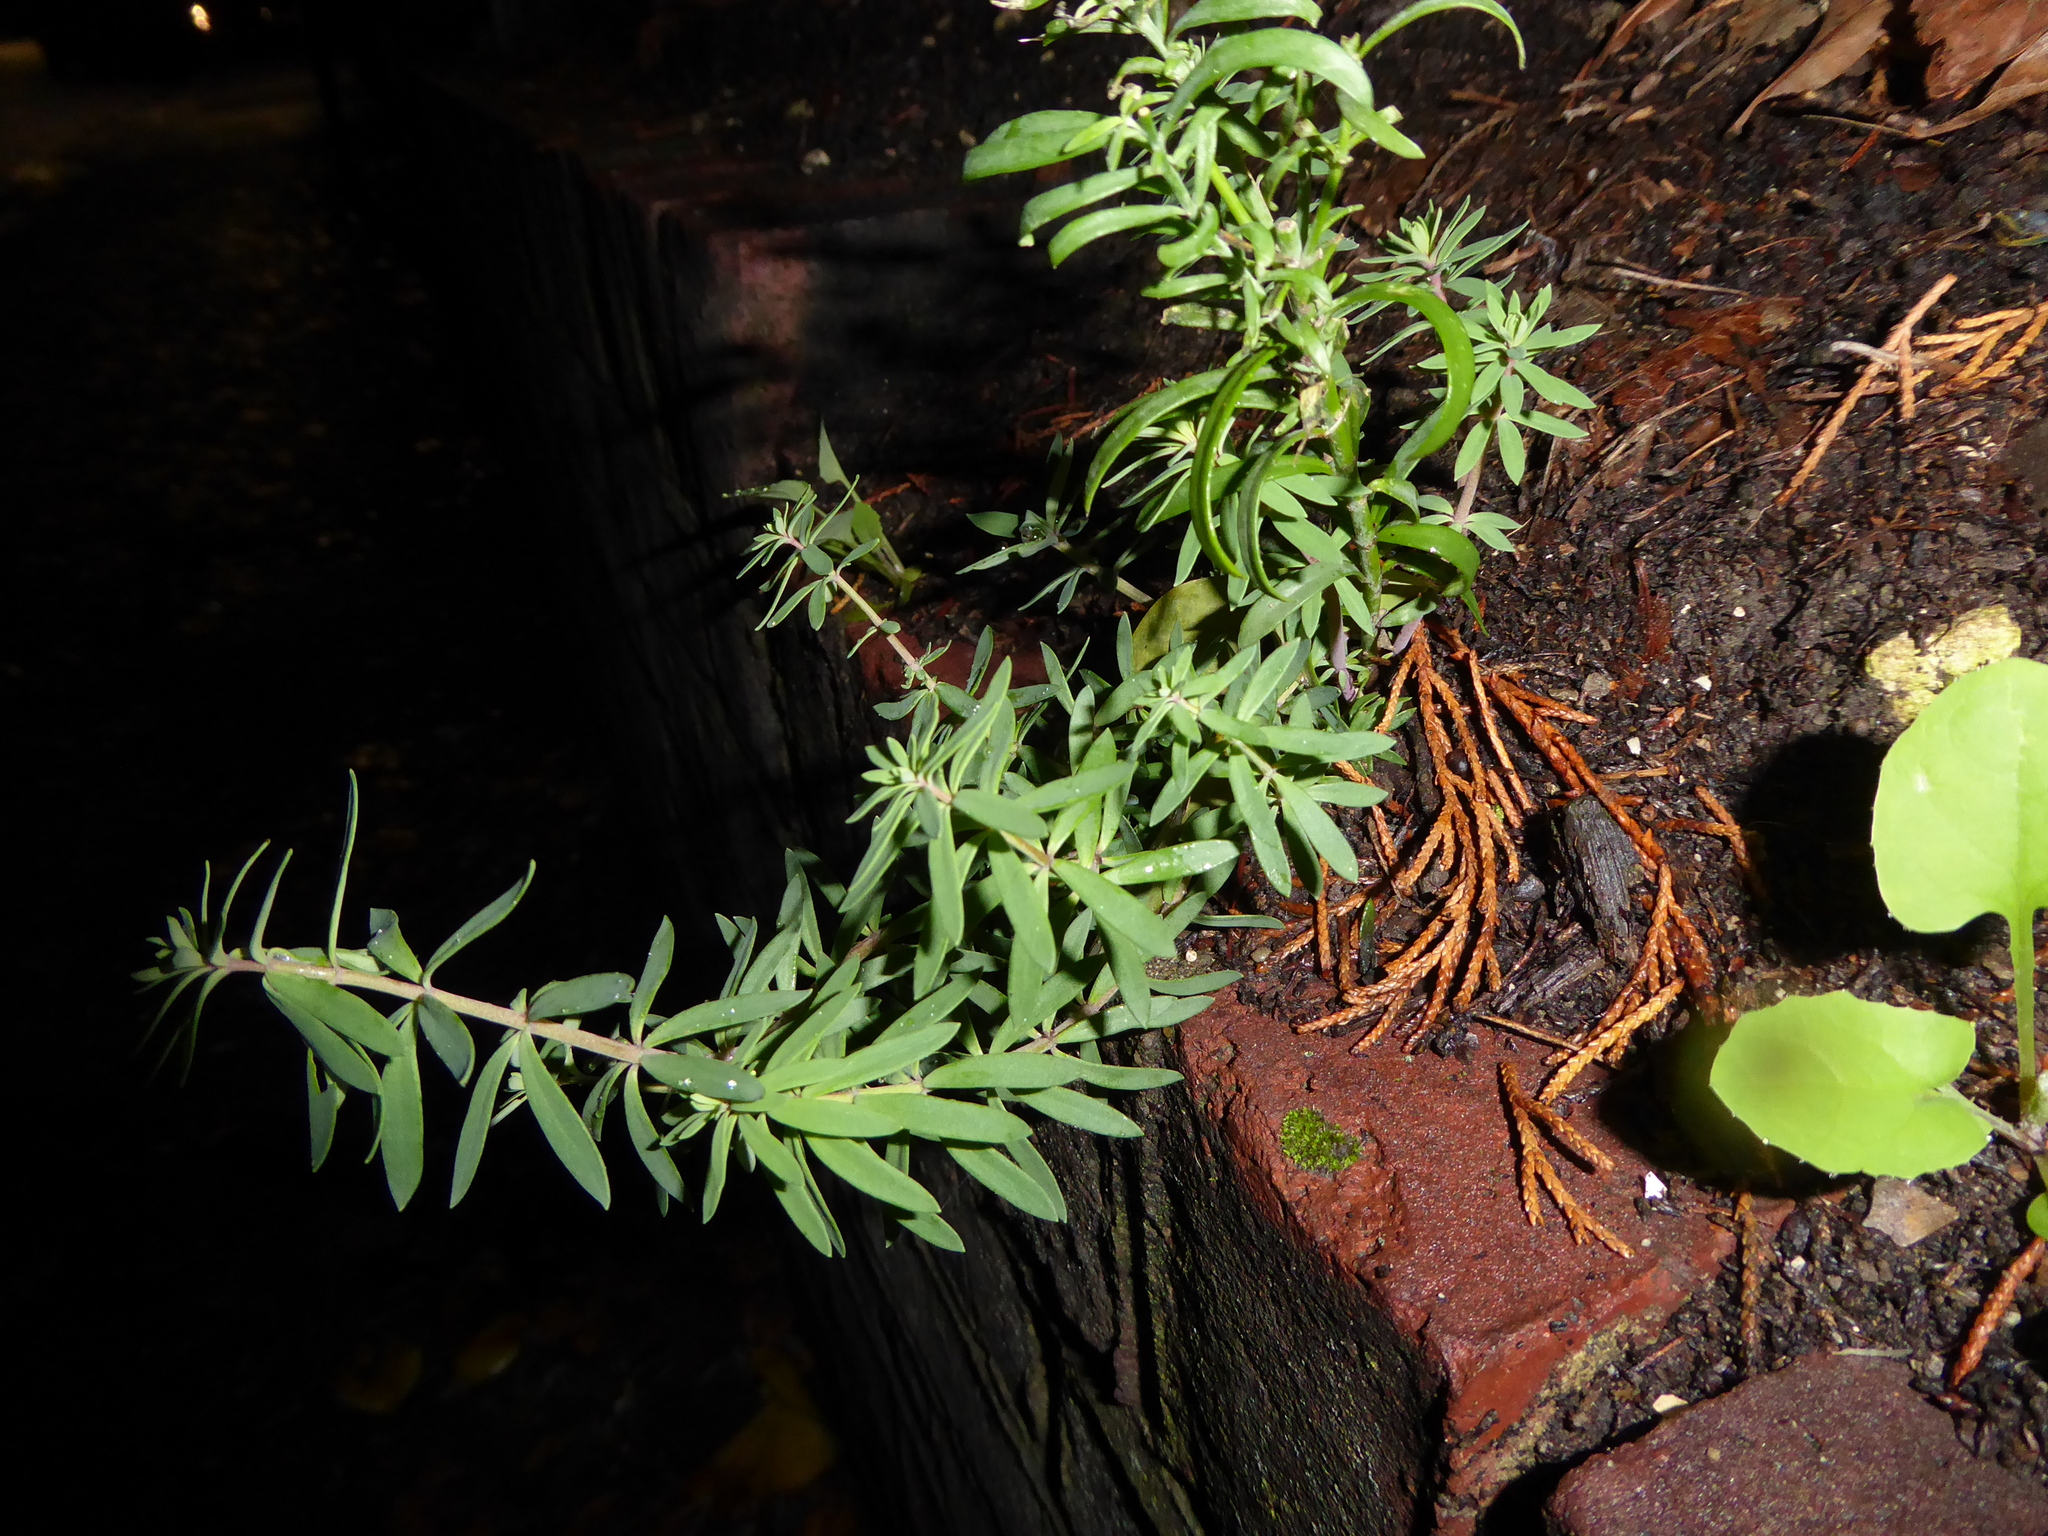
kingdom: Plantae
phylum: Tracheophyta
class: Magnoliopsida
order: Lamiales
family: Plantaginaceae
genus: Linaria
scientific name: Linaria purpurea
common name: Purple toadflax
